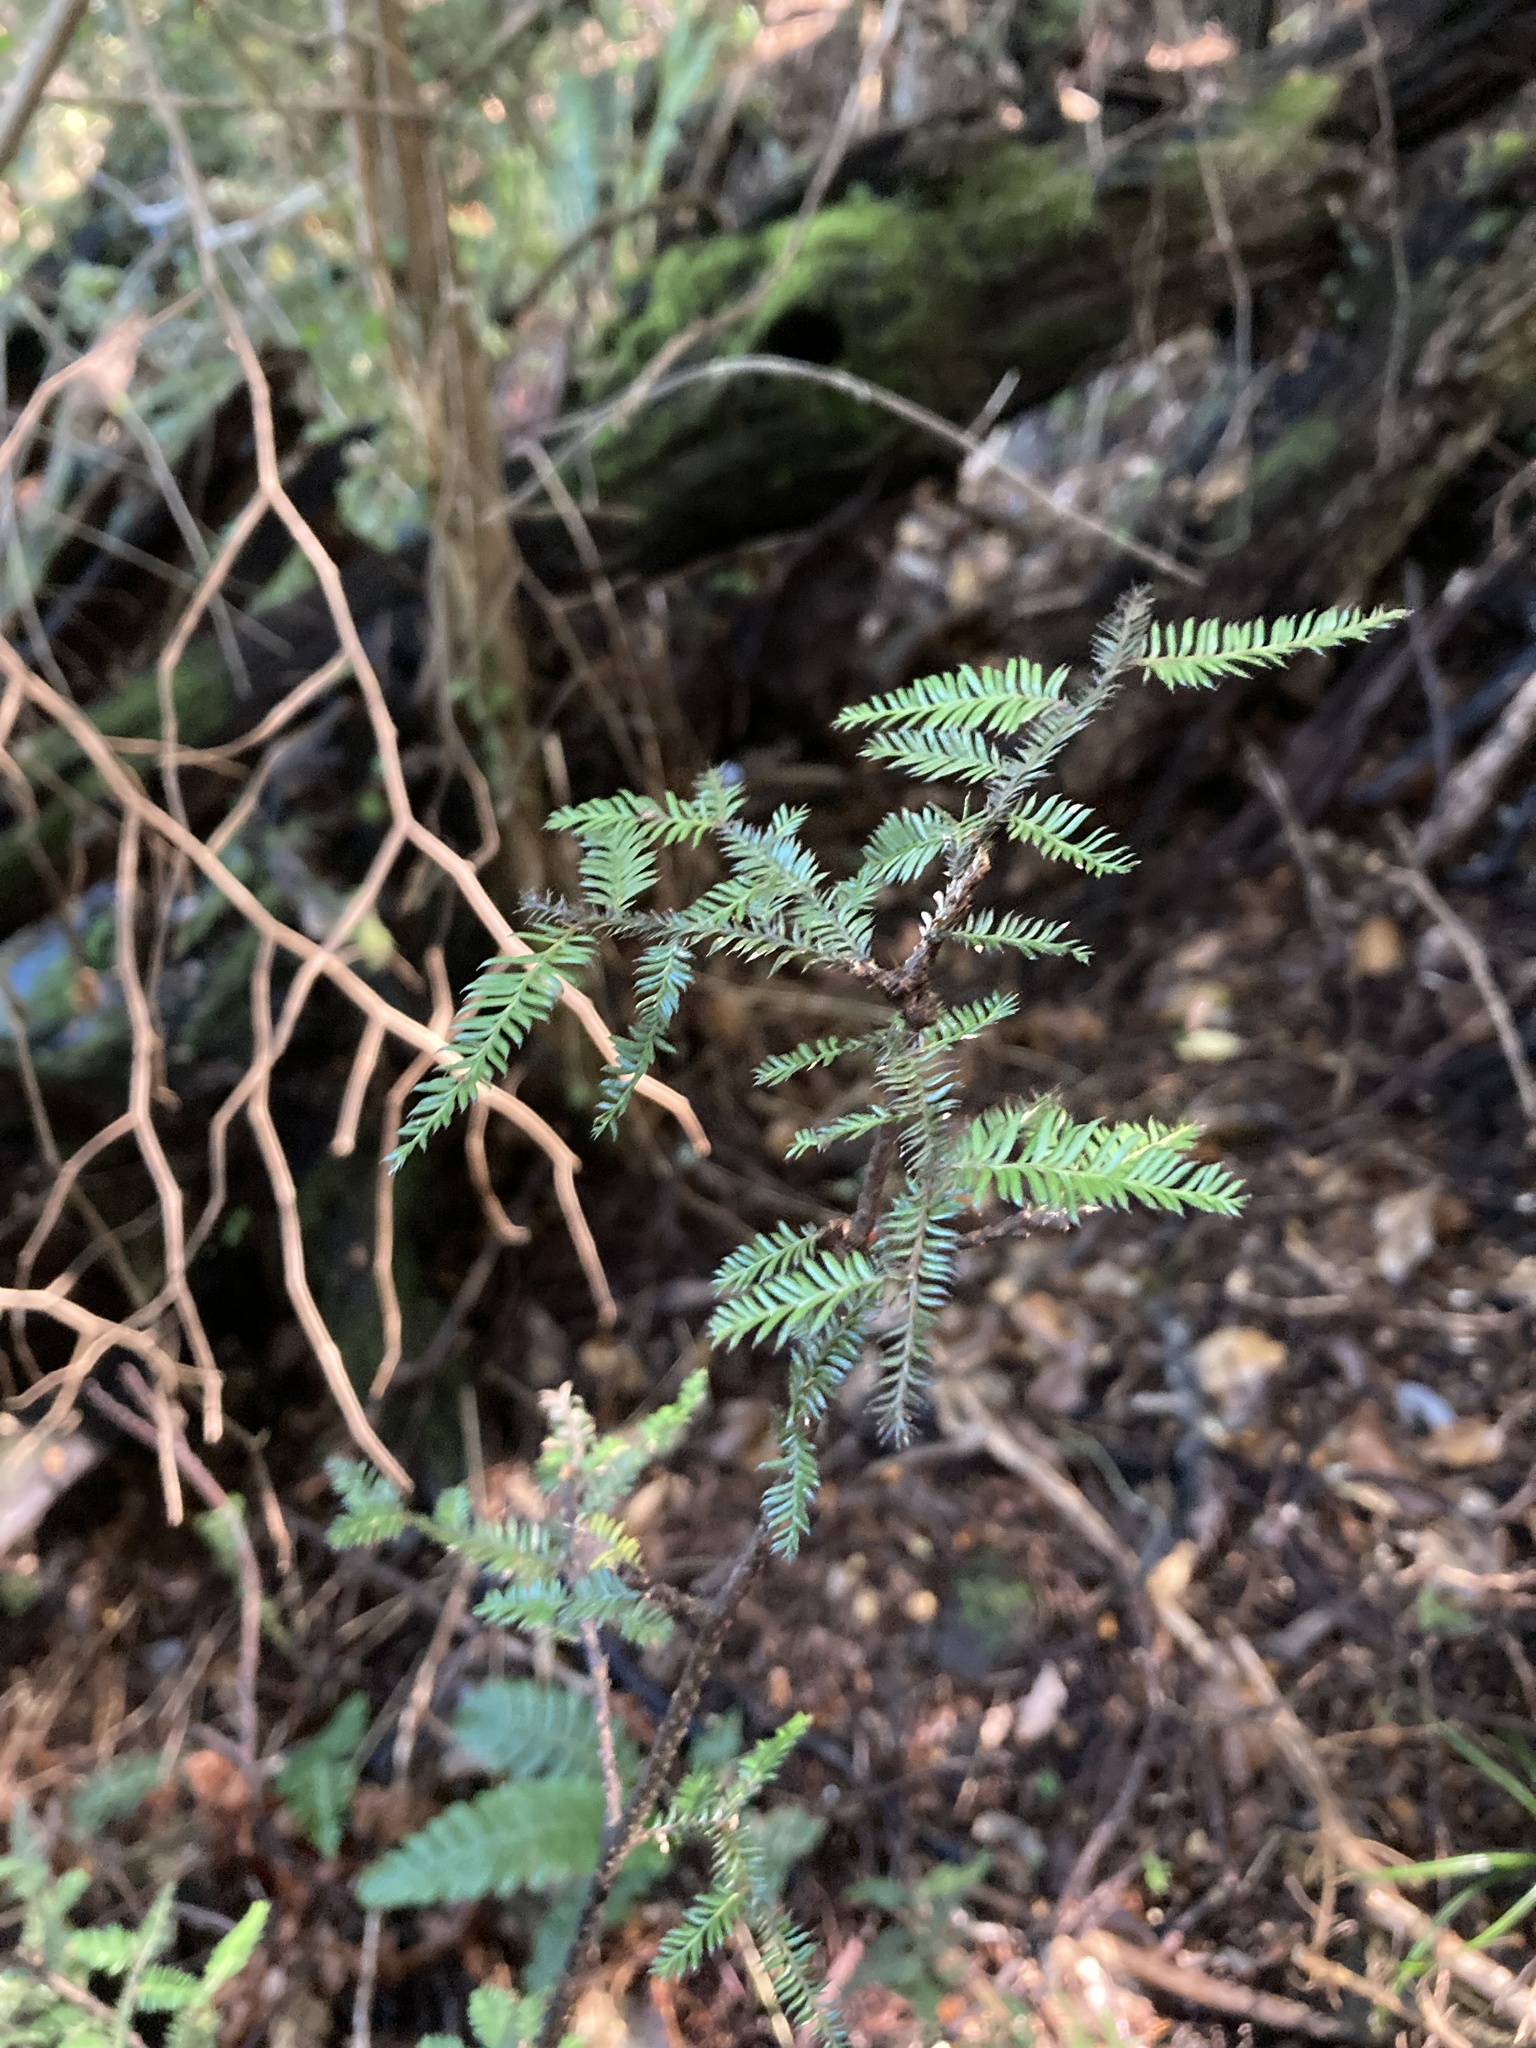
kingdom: Plantae
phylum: Tracheophyta
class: Pinopsida
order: Pinales
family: Podocarpaceae
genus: Dacrycarpus
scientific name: Dacrycarpus dacrydioides
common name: White pine
